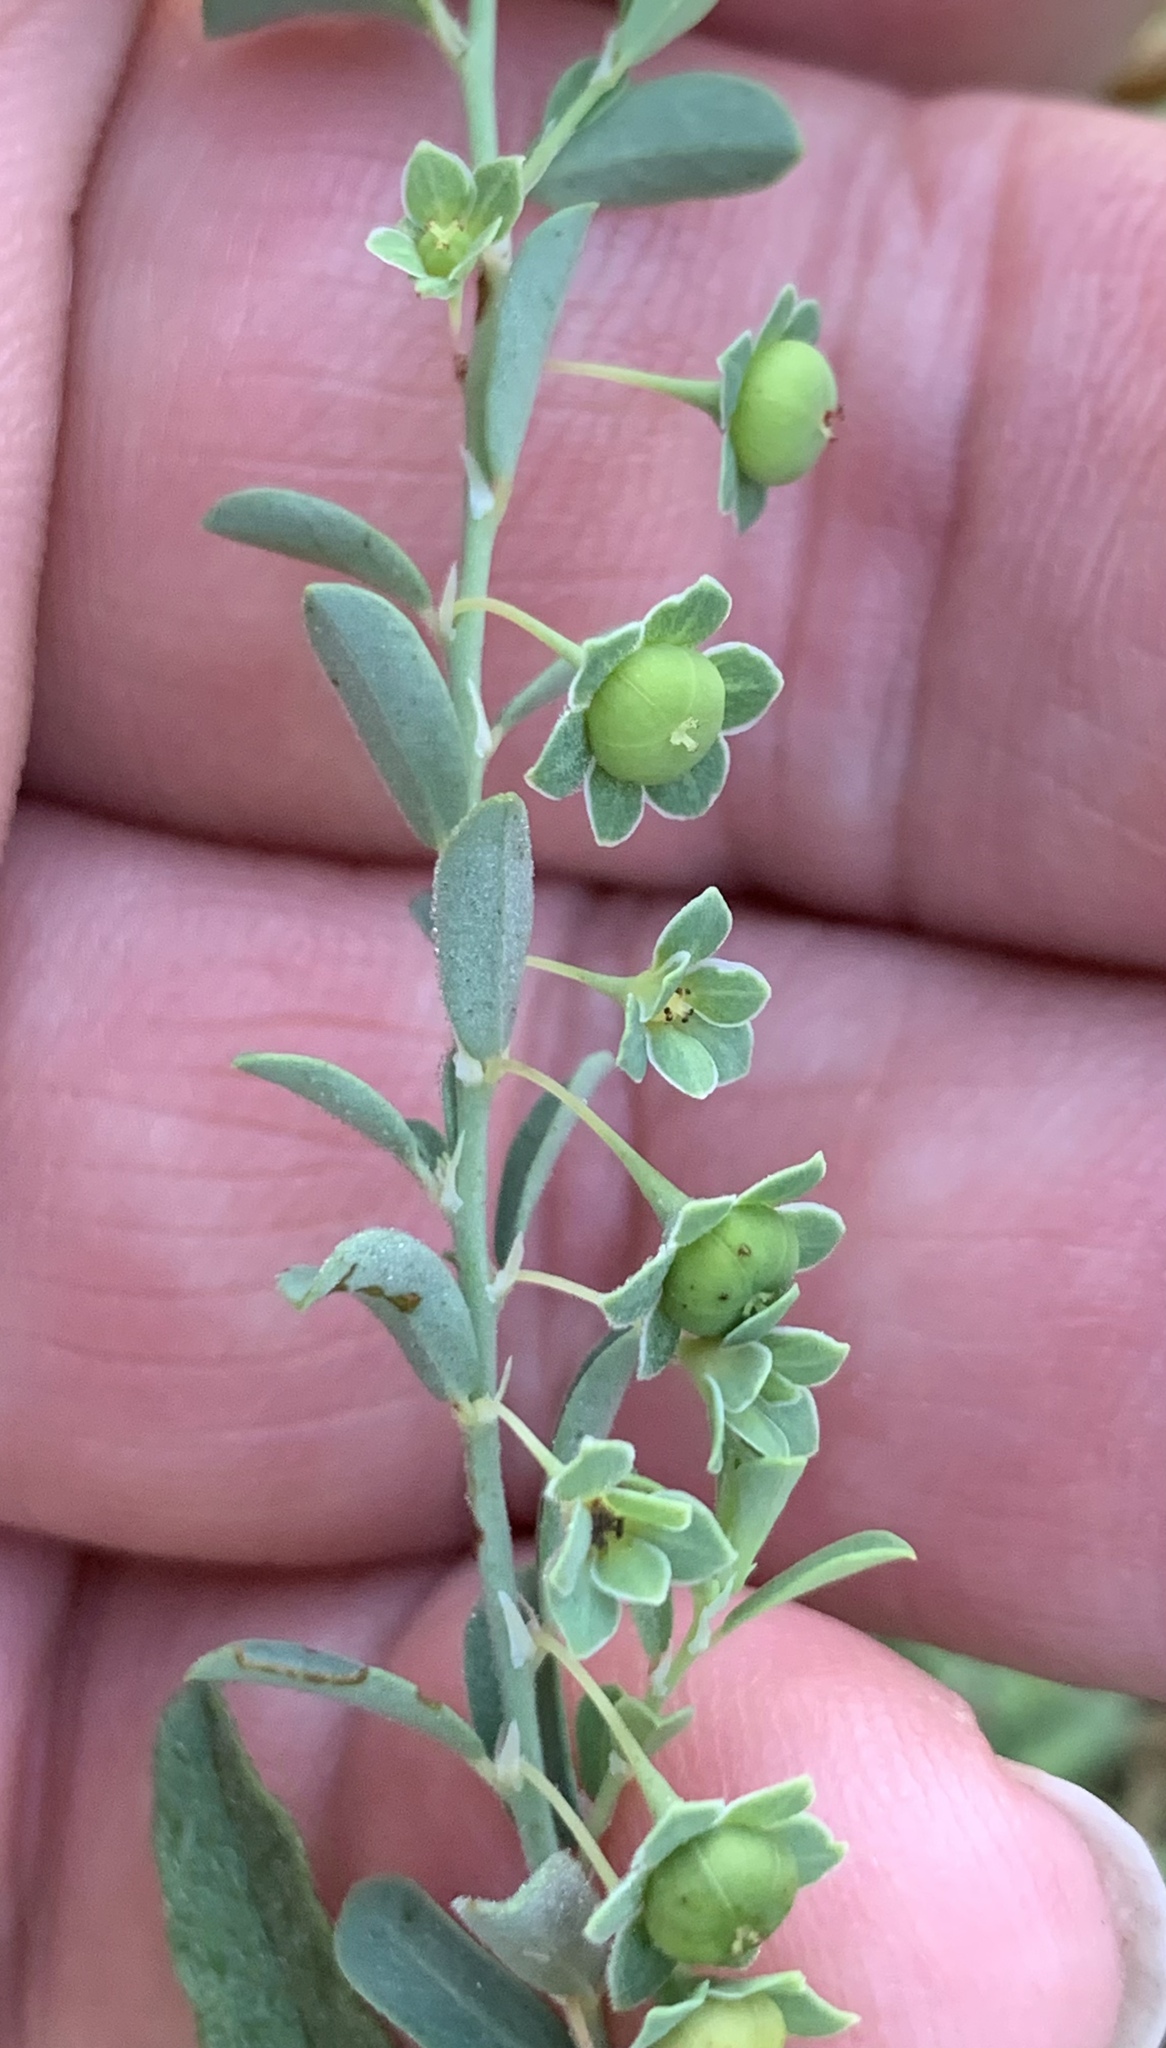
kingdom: Plantae
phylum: Tracheophyta
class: Magnoliopsida
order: Malpighiales
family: Phyllanthaceae
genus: Phyllanthus
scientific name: Phyllanthus polygonoides
